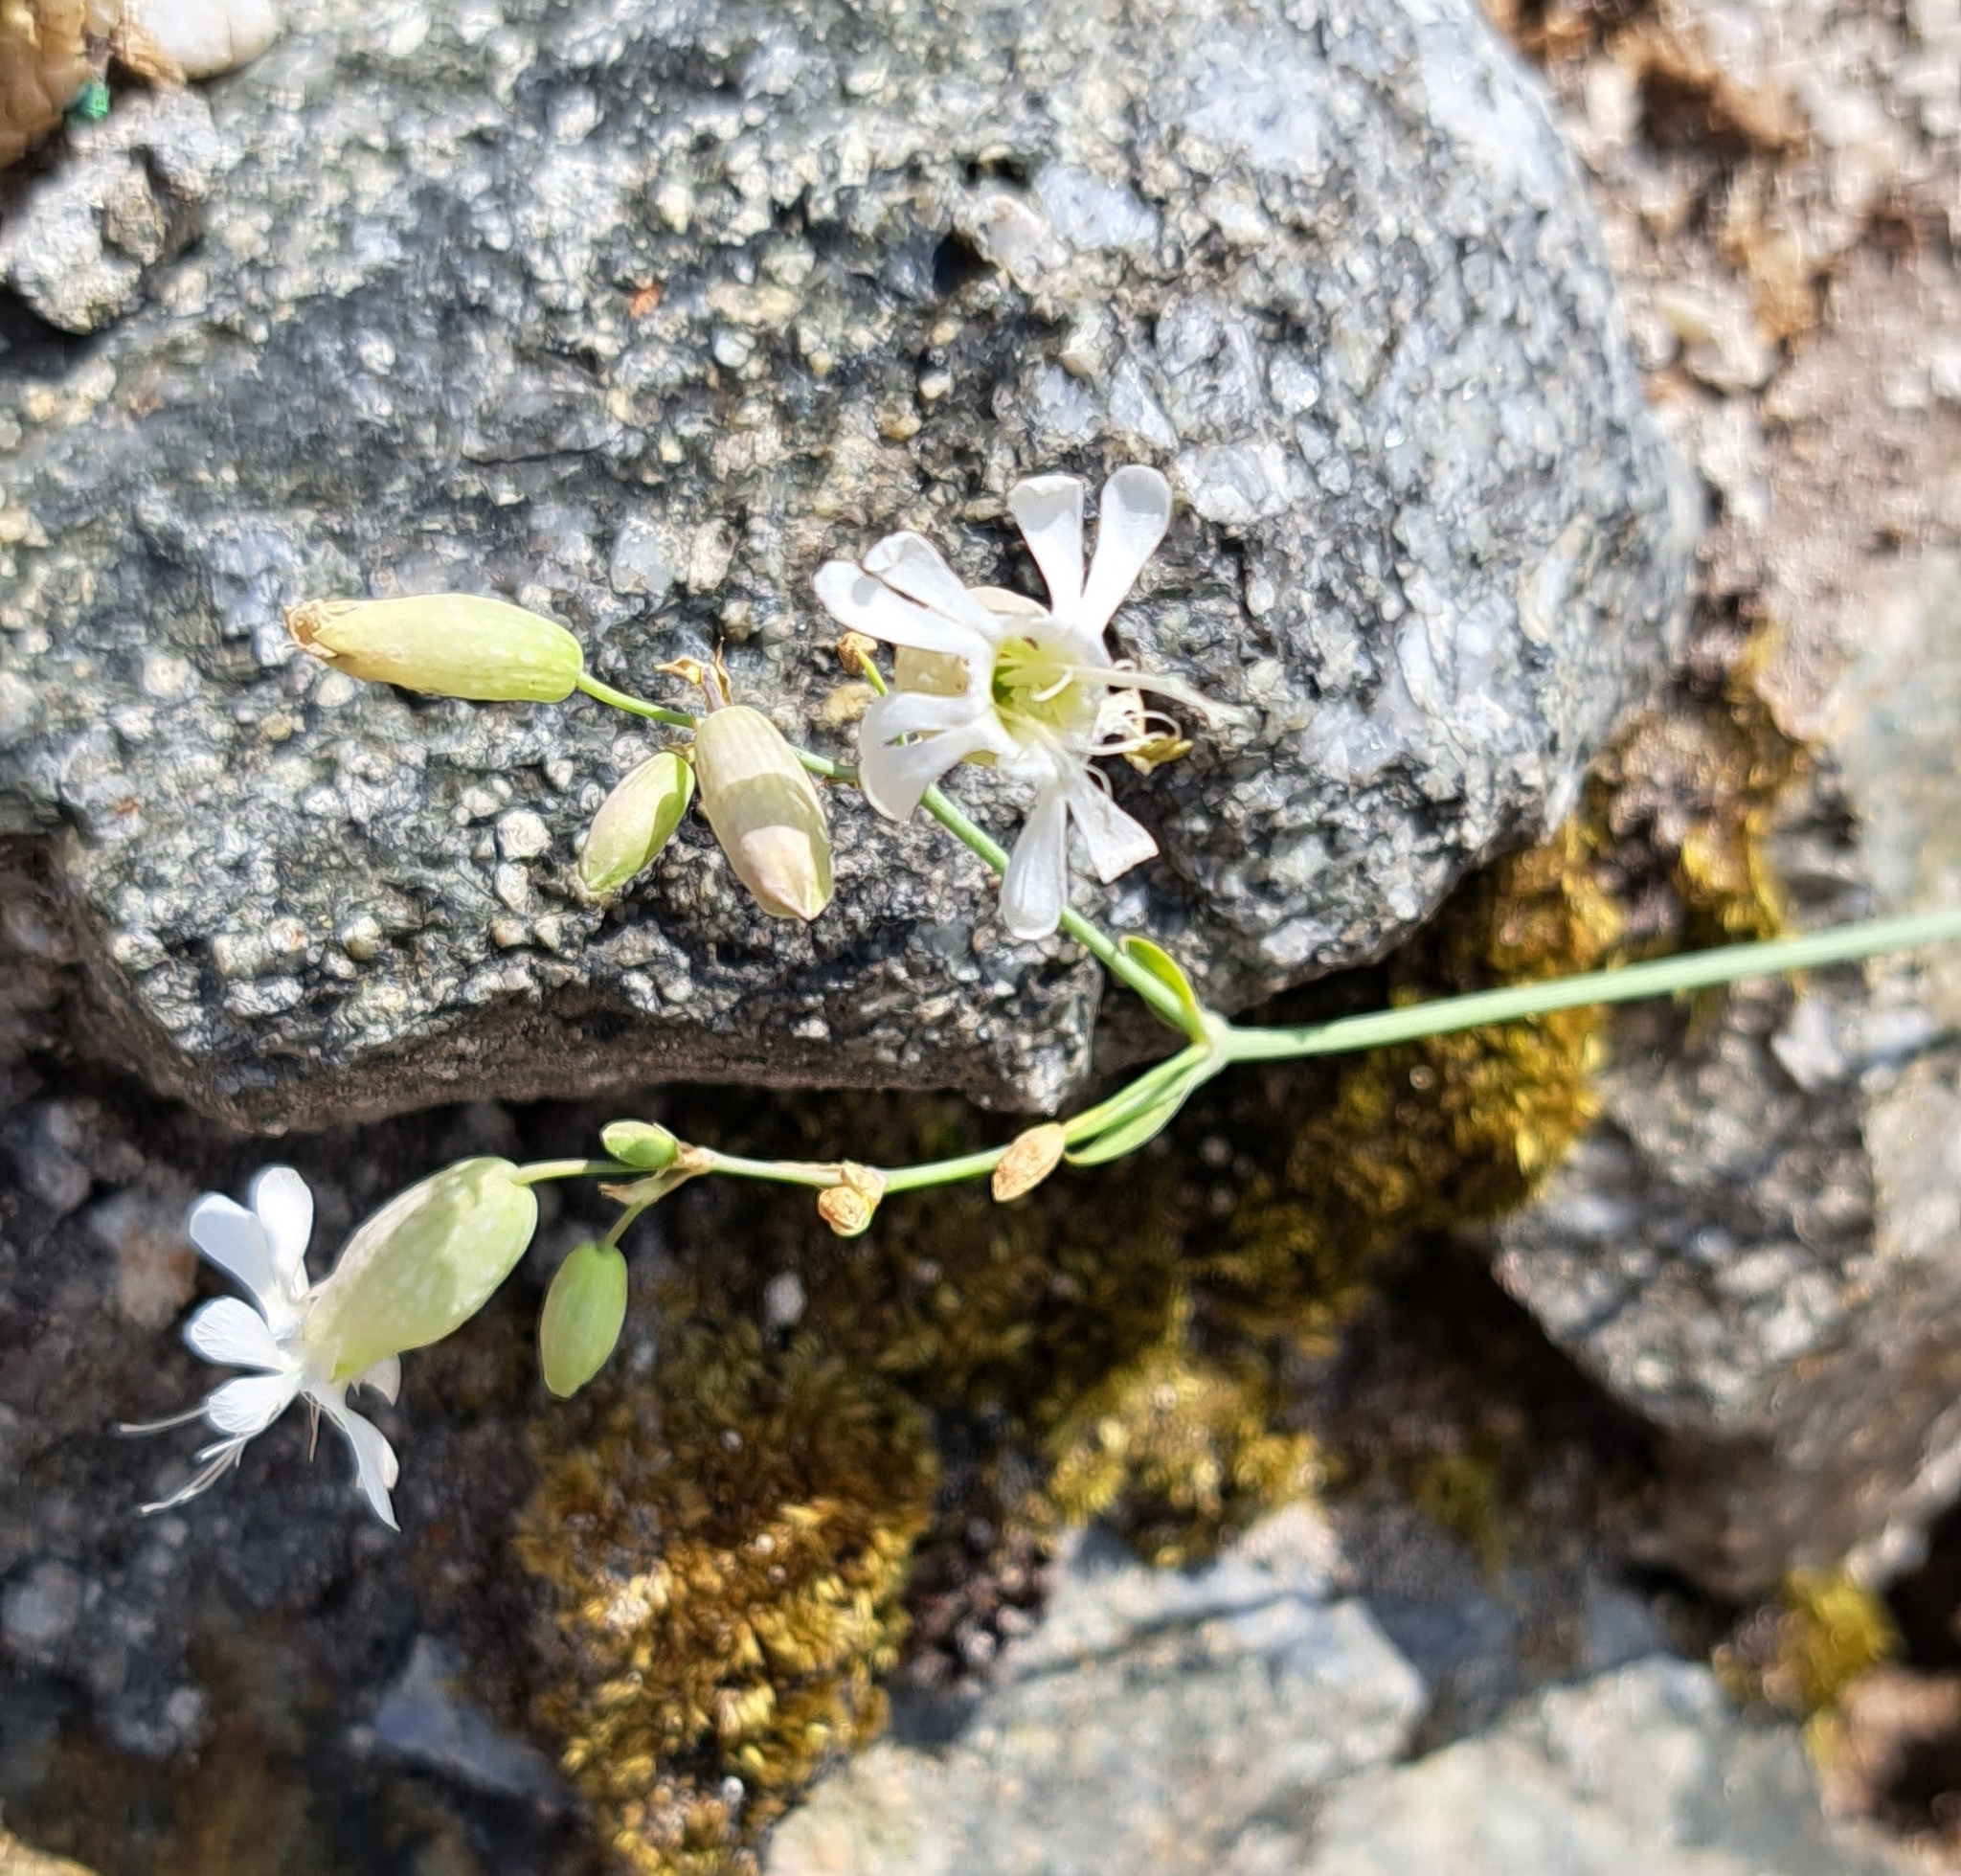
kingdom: Plantae
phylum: Tracheophyta
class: Magnoliopsida
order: Caryophyllales
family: Caryophyllaceae
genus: Silene
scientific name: Silene vulgaris
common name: Bladder campion
